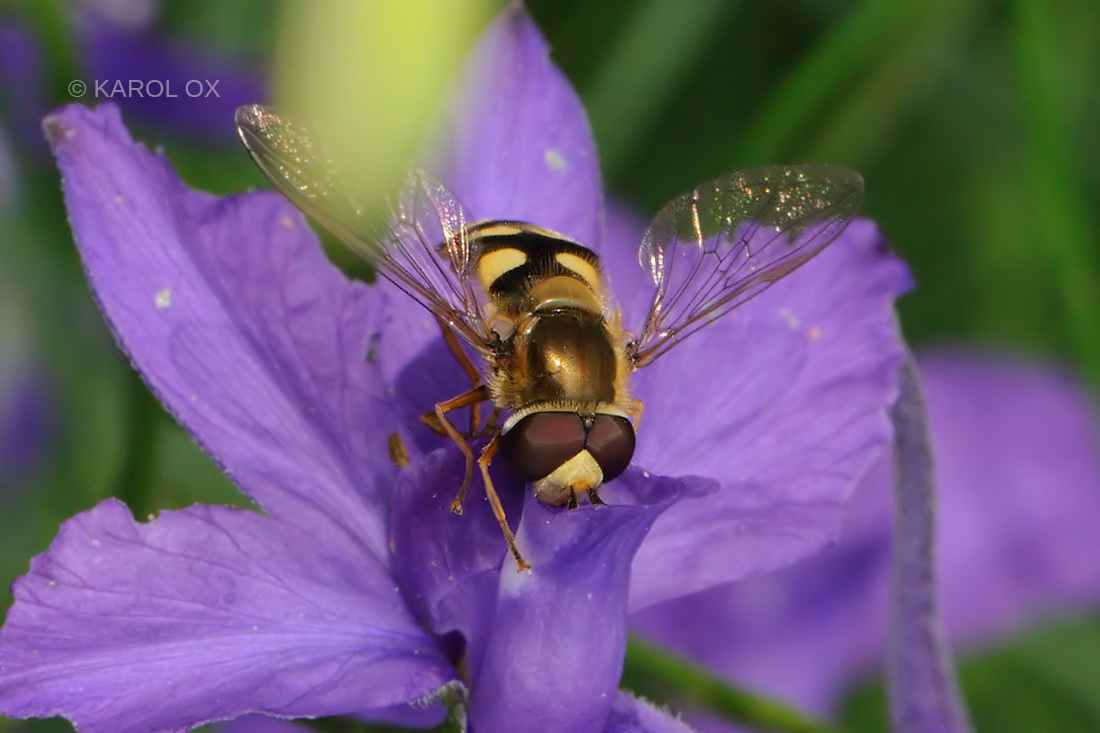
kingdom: Animalia
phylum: Arthropoda
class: Insecta
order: Diptera
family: Syrphidae
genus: Eupeodes
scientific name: Eupeodes corollae
